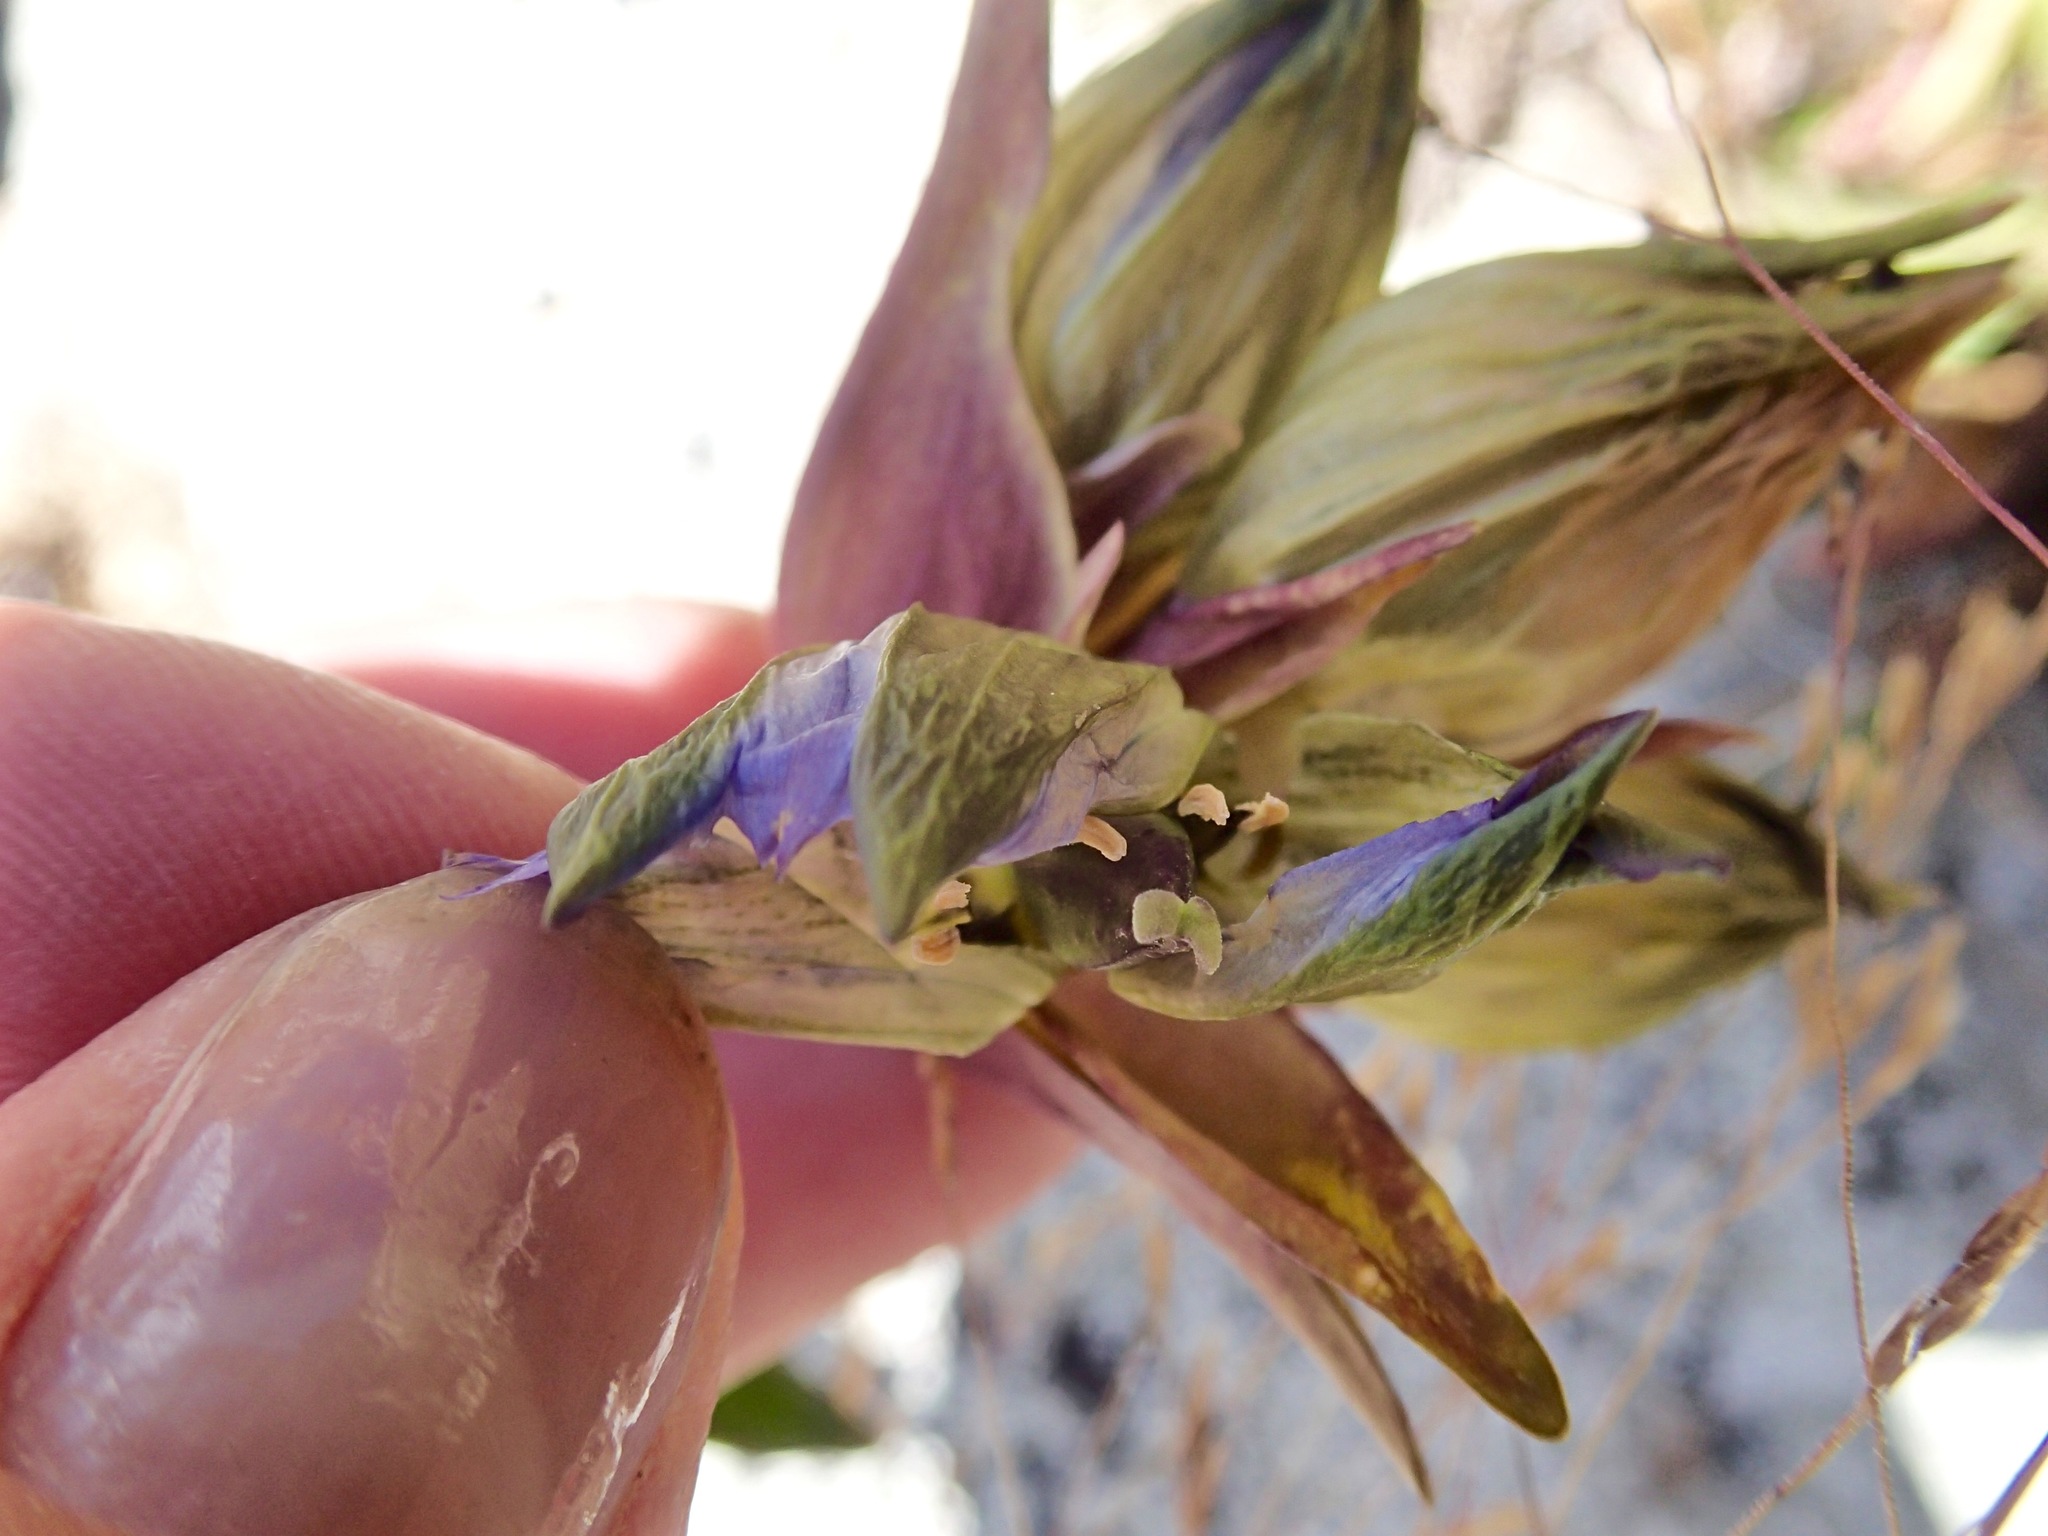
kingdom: Plantae
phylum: Tracheophyta
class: Magnoliopsida
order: Gentianales
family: Gentianaceae
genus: Gentiana
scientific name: Gentiana parryi
